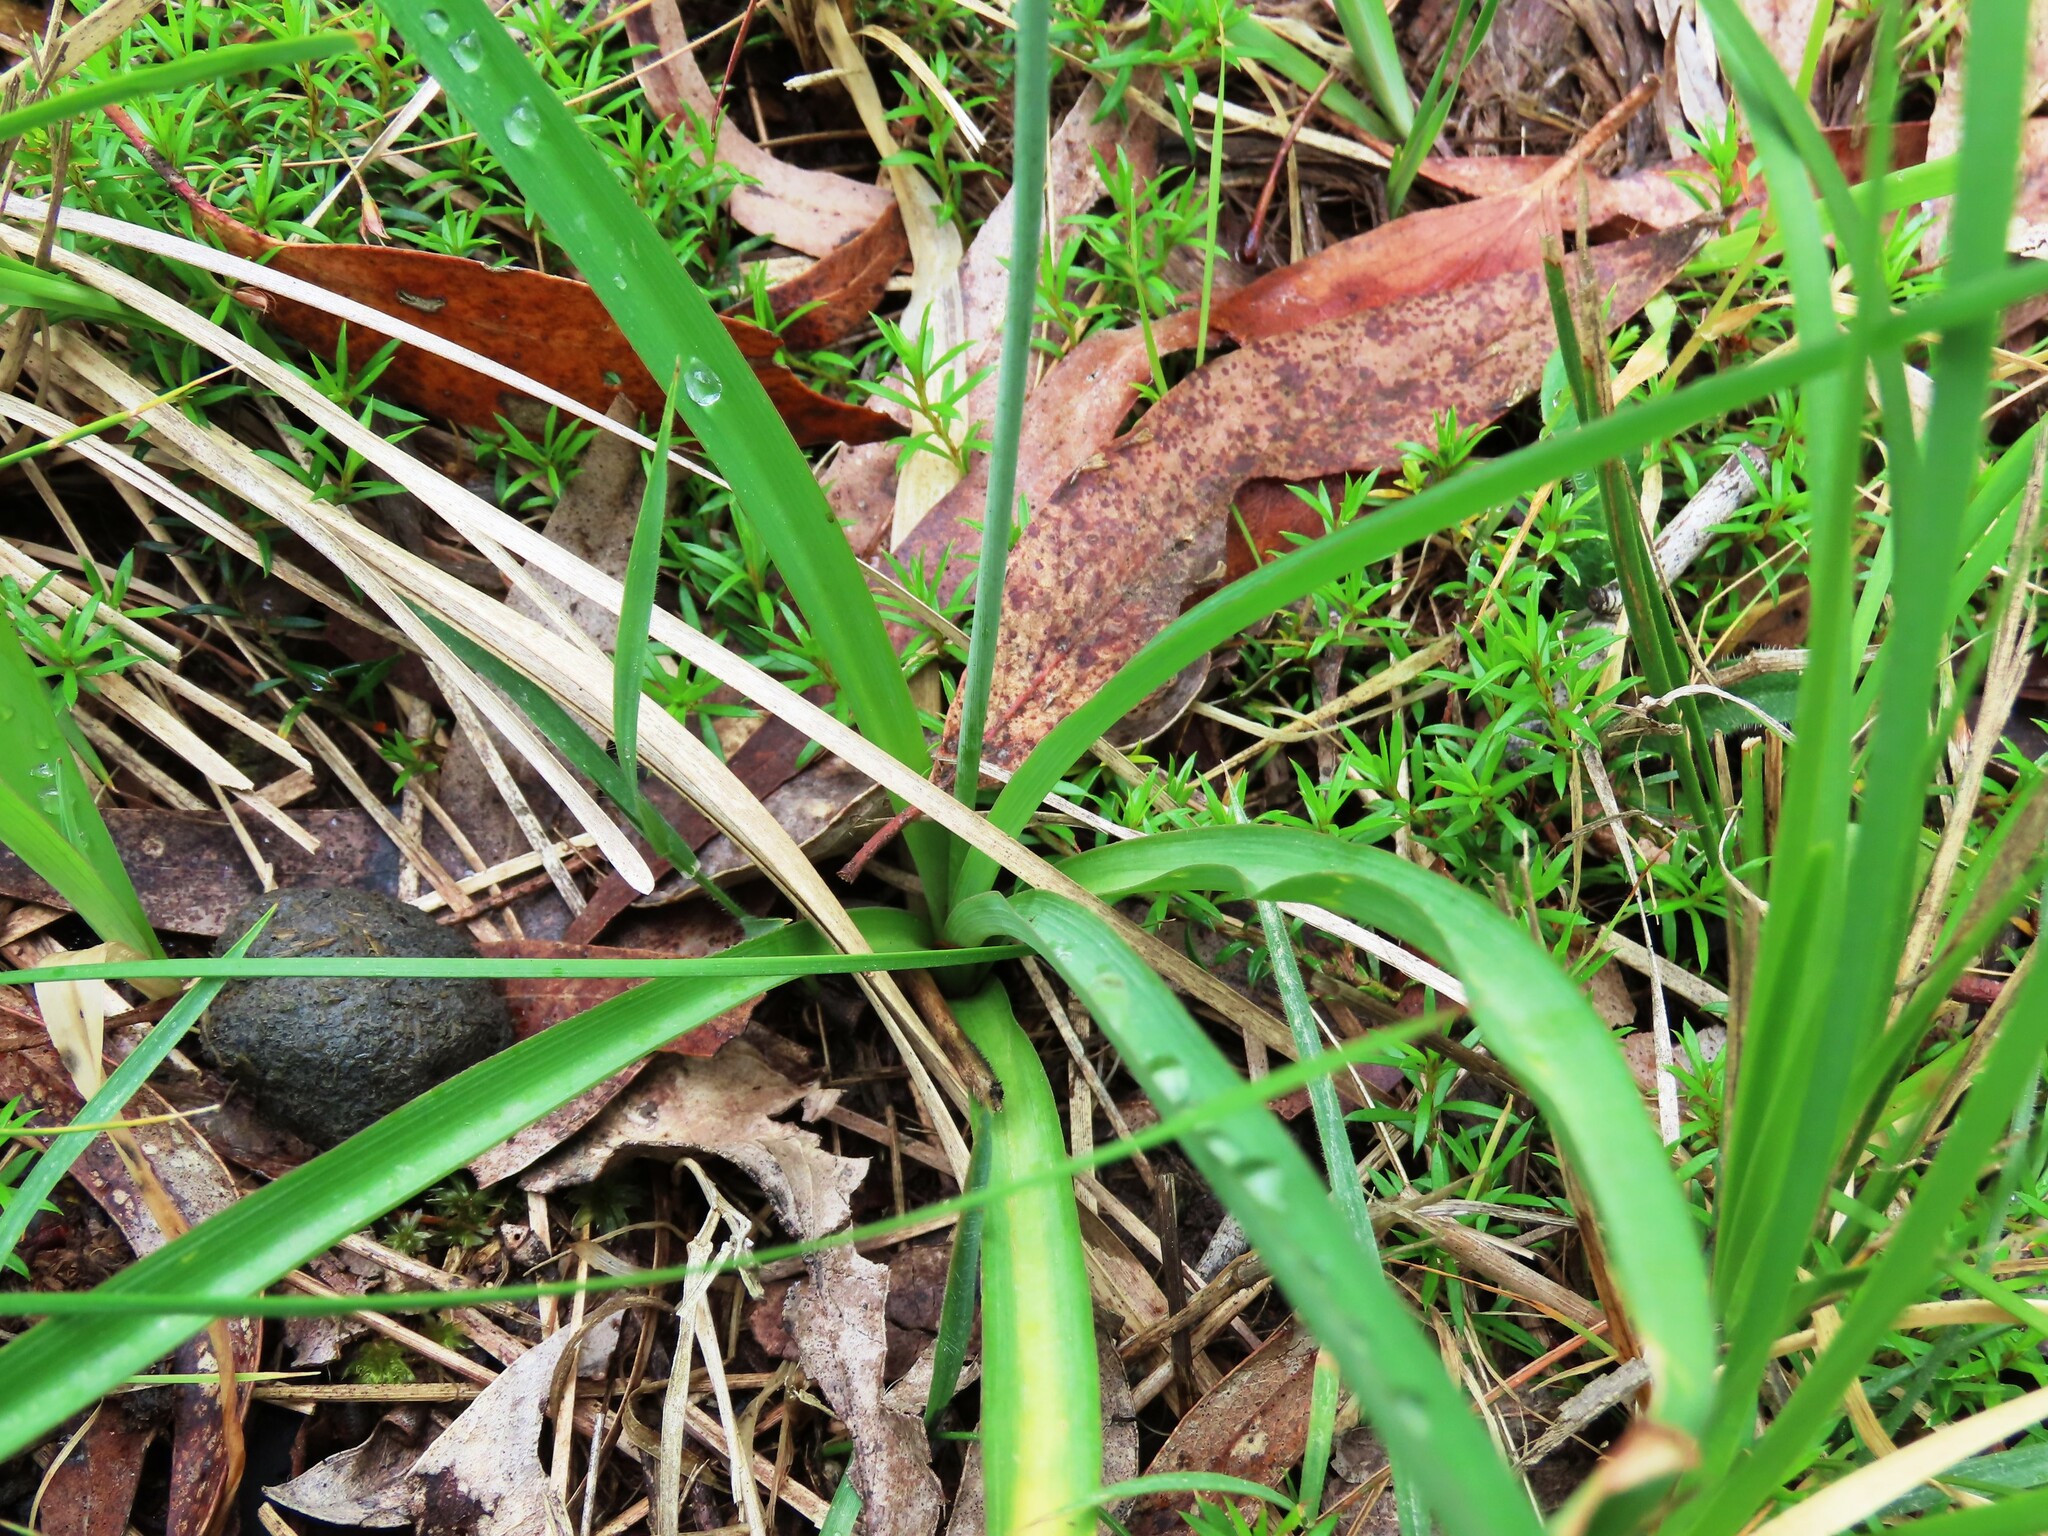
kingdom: Plantae
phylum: Tracheophyta
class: Liliopsida
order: Asparagales
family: Asparagaceae
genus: Arthropodium
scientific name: Arthropodium milleflorum
